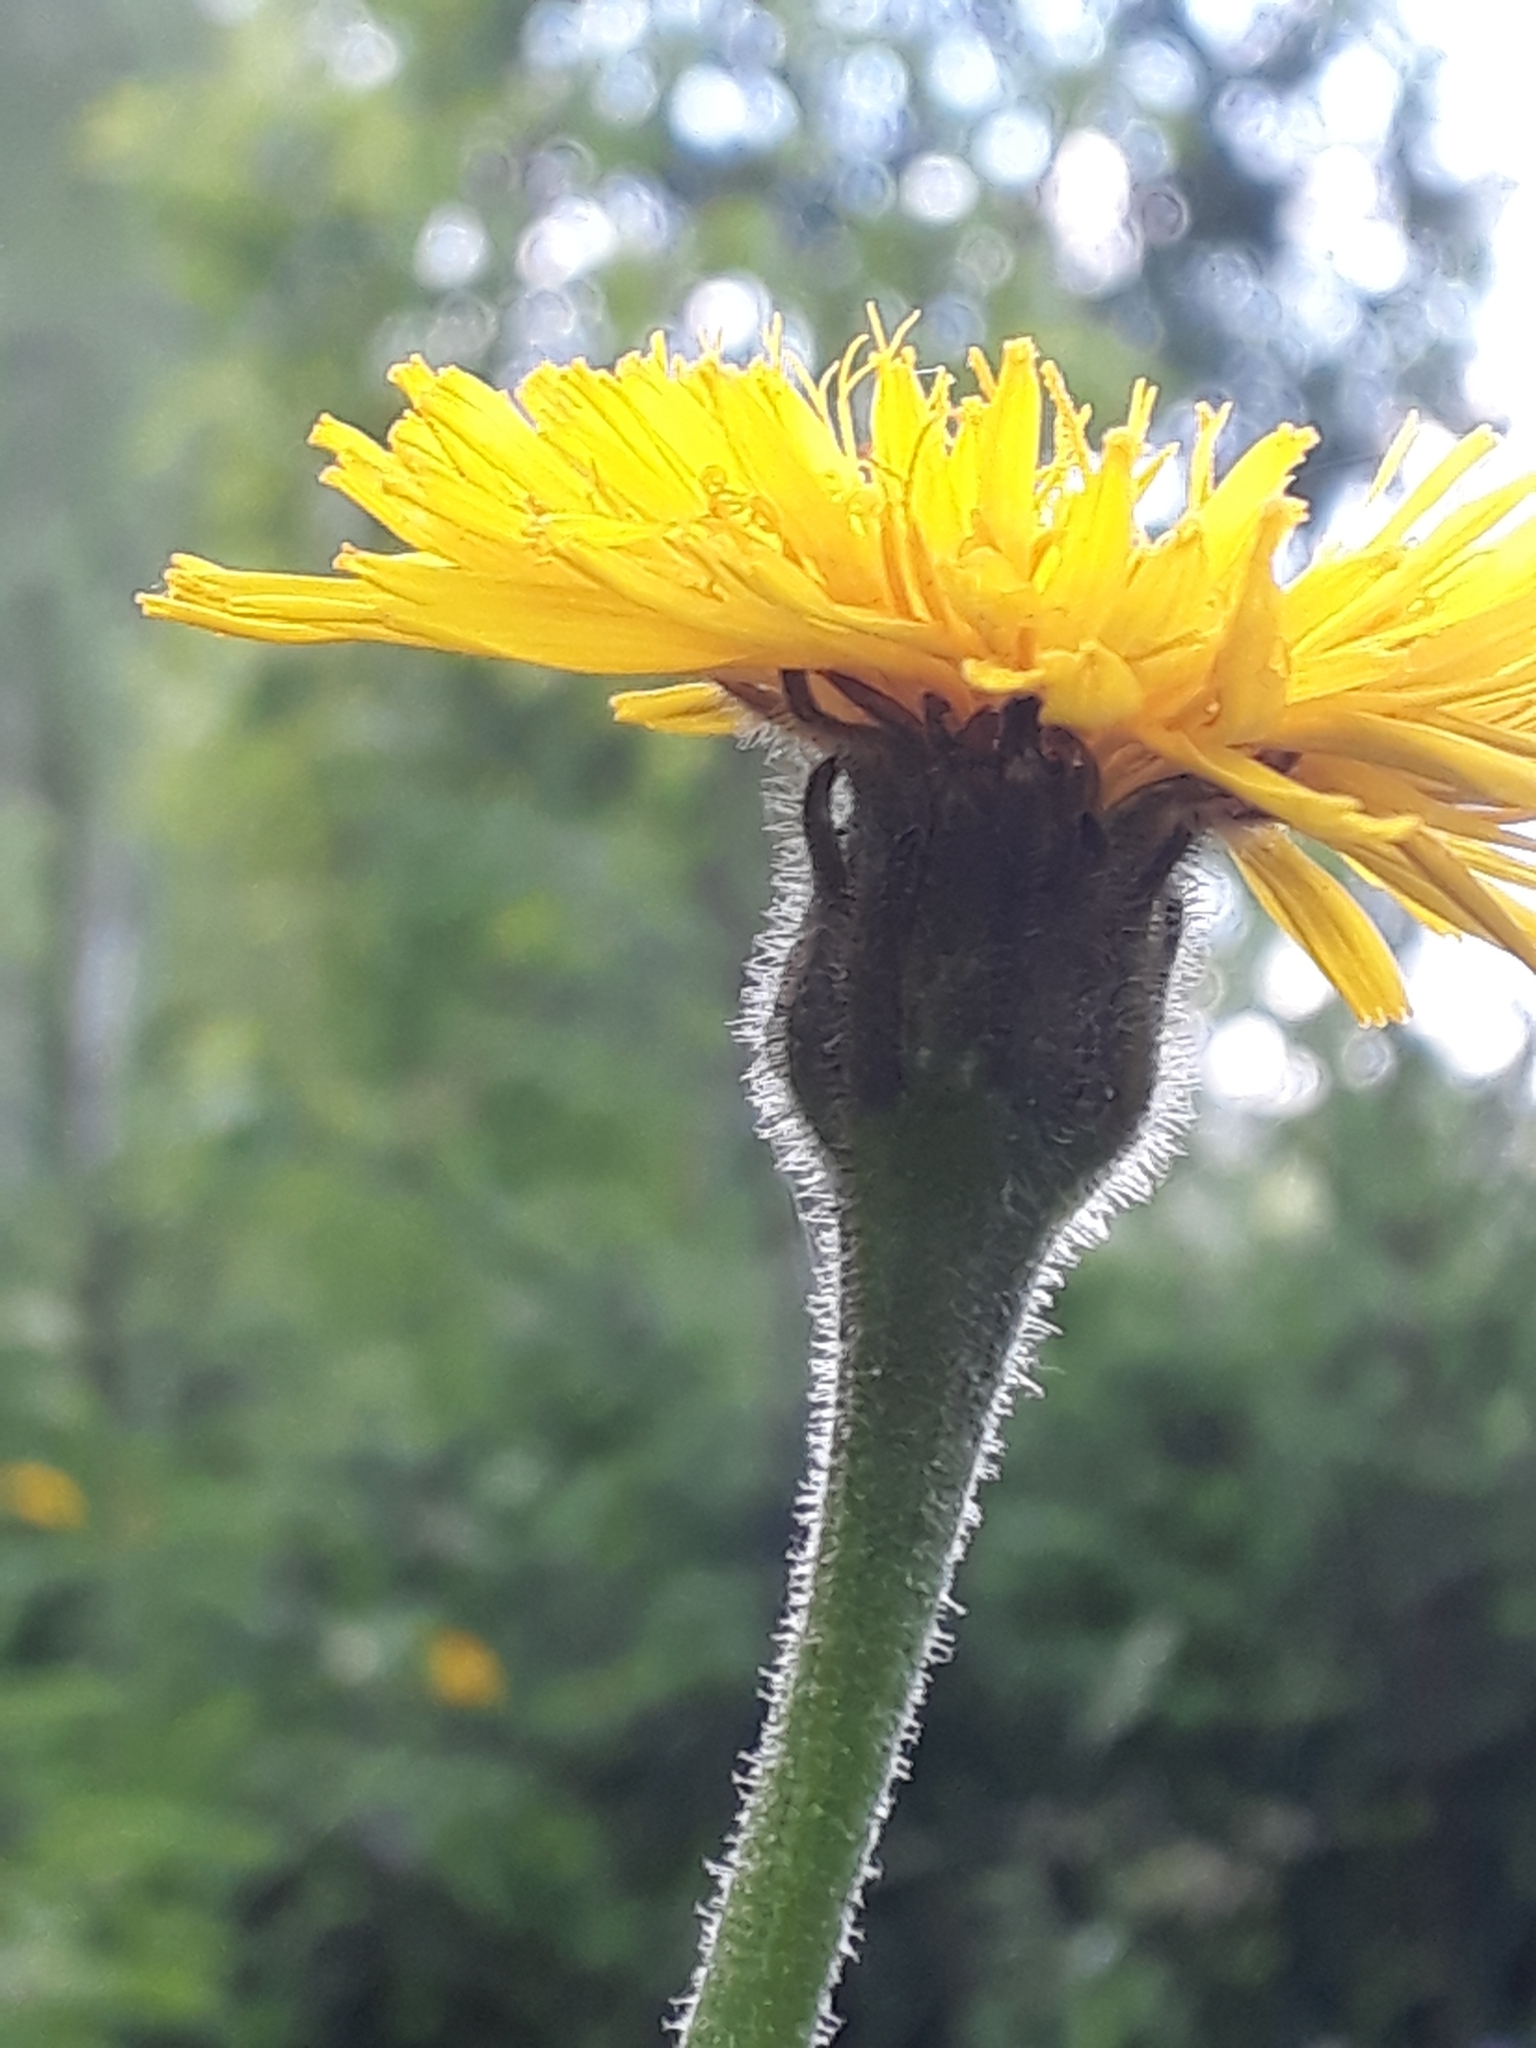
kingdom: Plantae
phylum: Tracheophyta
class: Magnoliopsida
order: Asterales
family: Asteraceae
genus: Leontodon
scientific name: Leontodon hispidus
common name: Rough hawkbit
